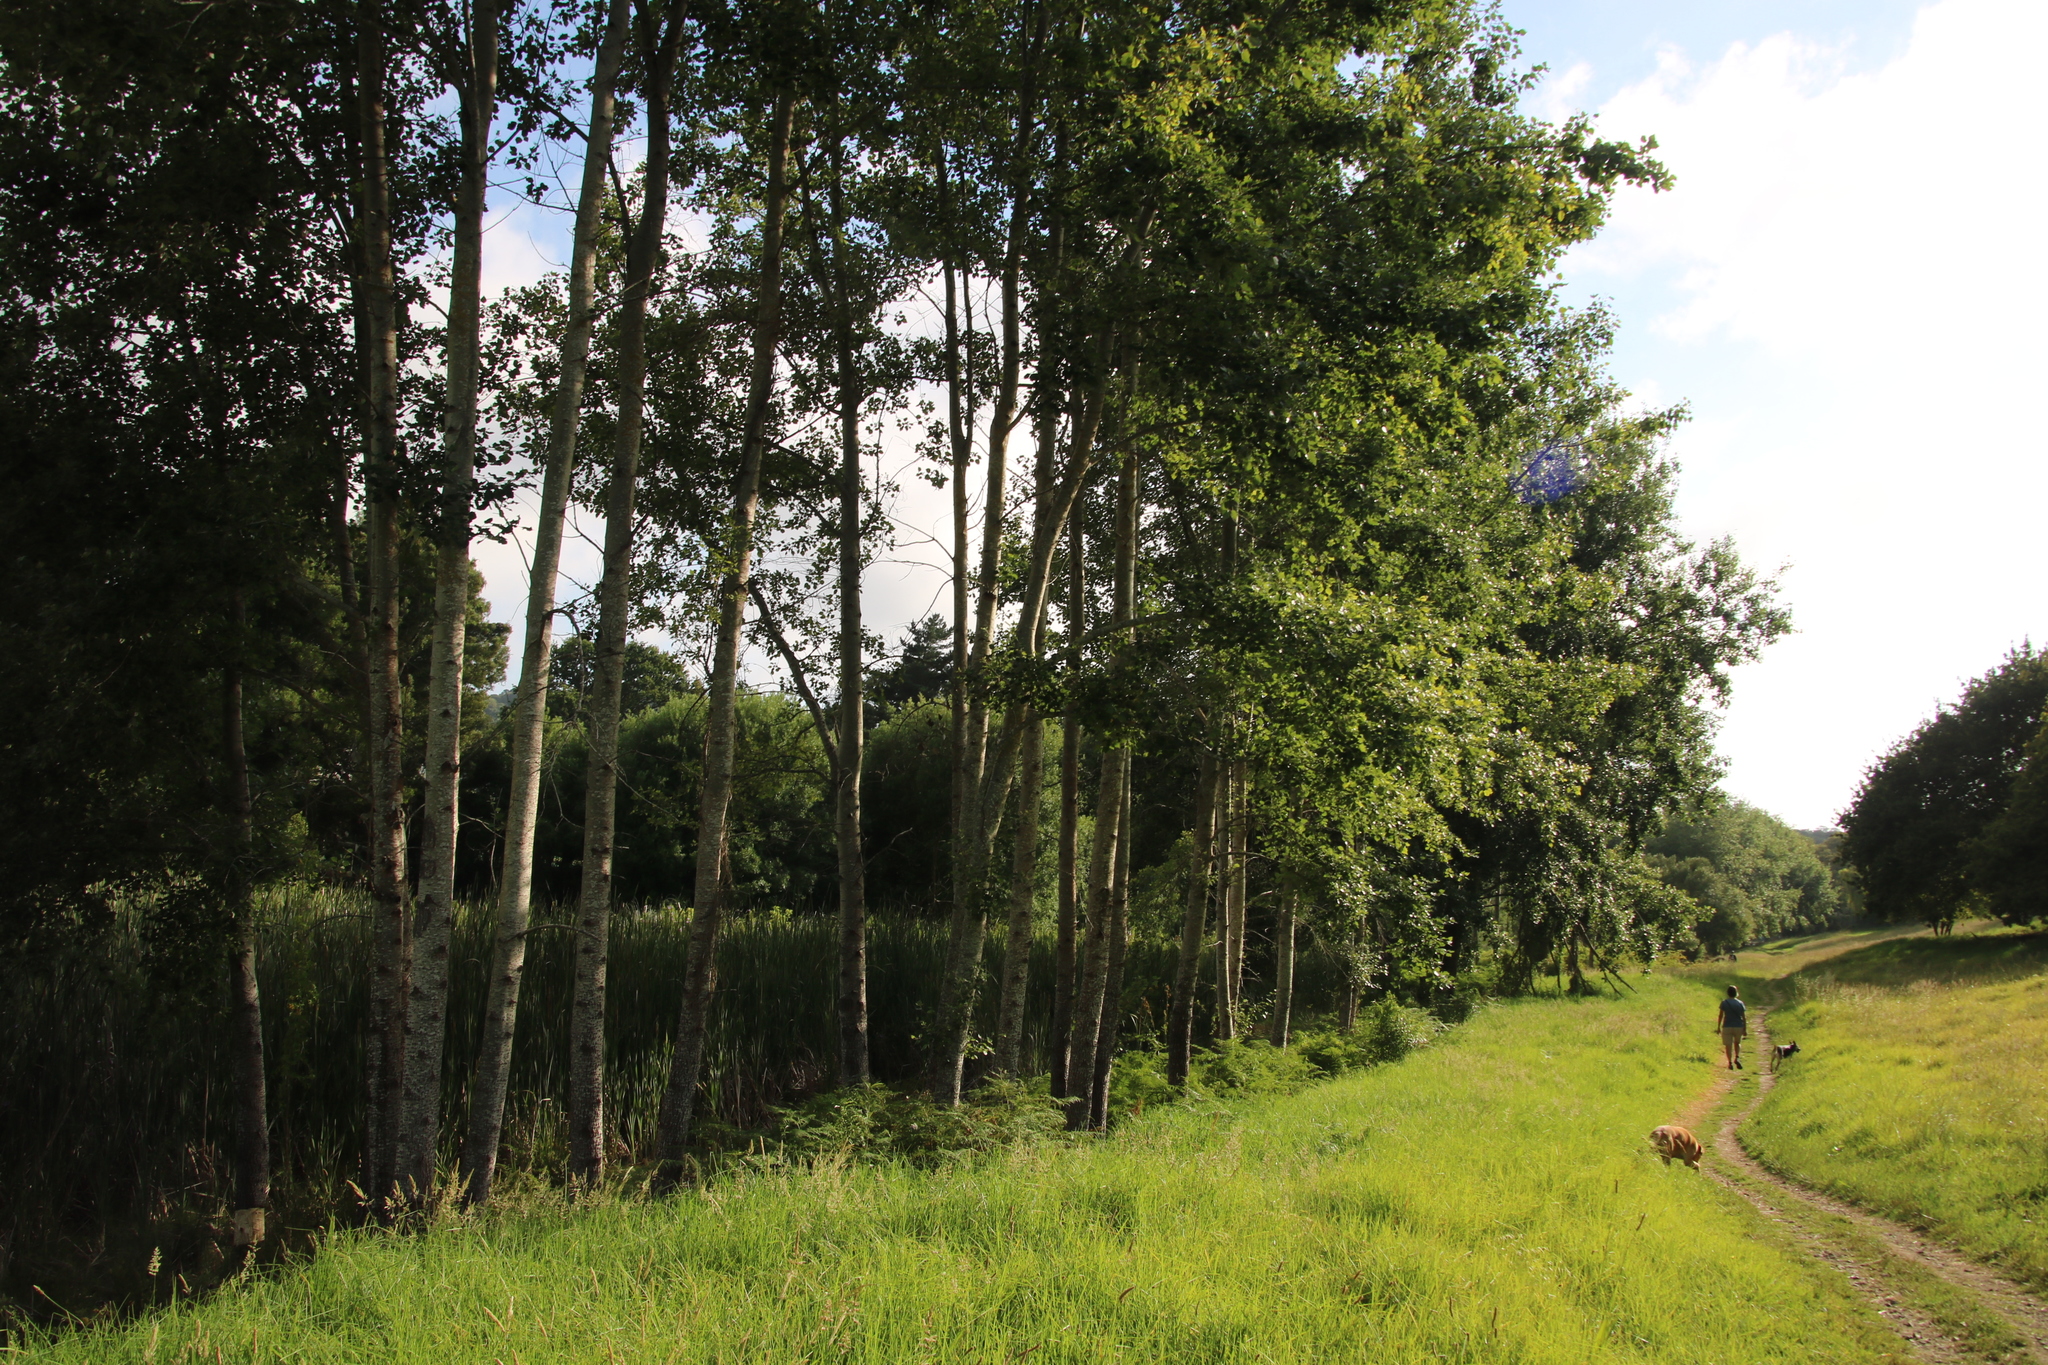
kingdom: Plantae
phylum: Tracheophyta
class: Magnoliopsida
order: Malpighiales
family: Salicaceae
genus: Populus
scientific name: Populus canescens
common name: Gray poplar
